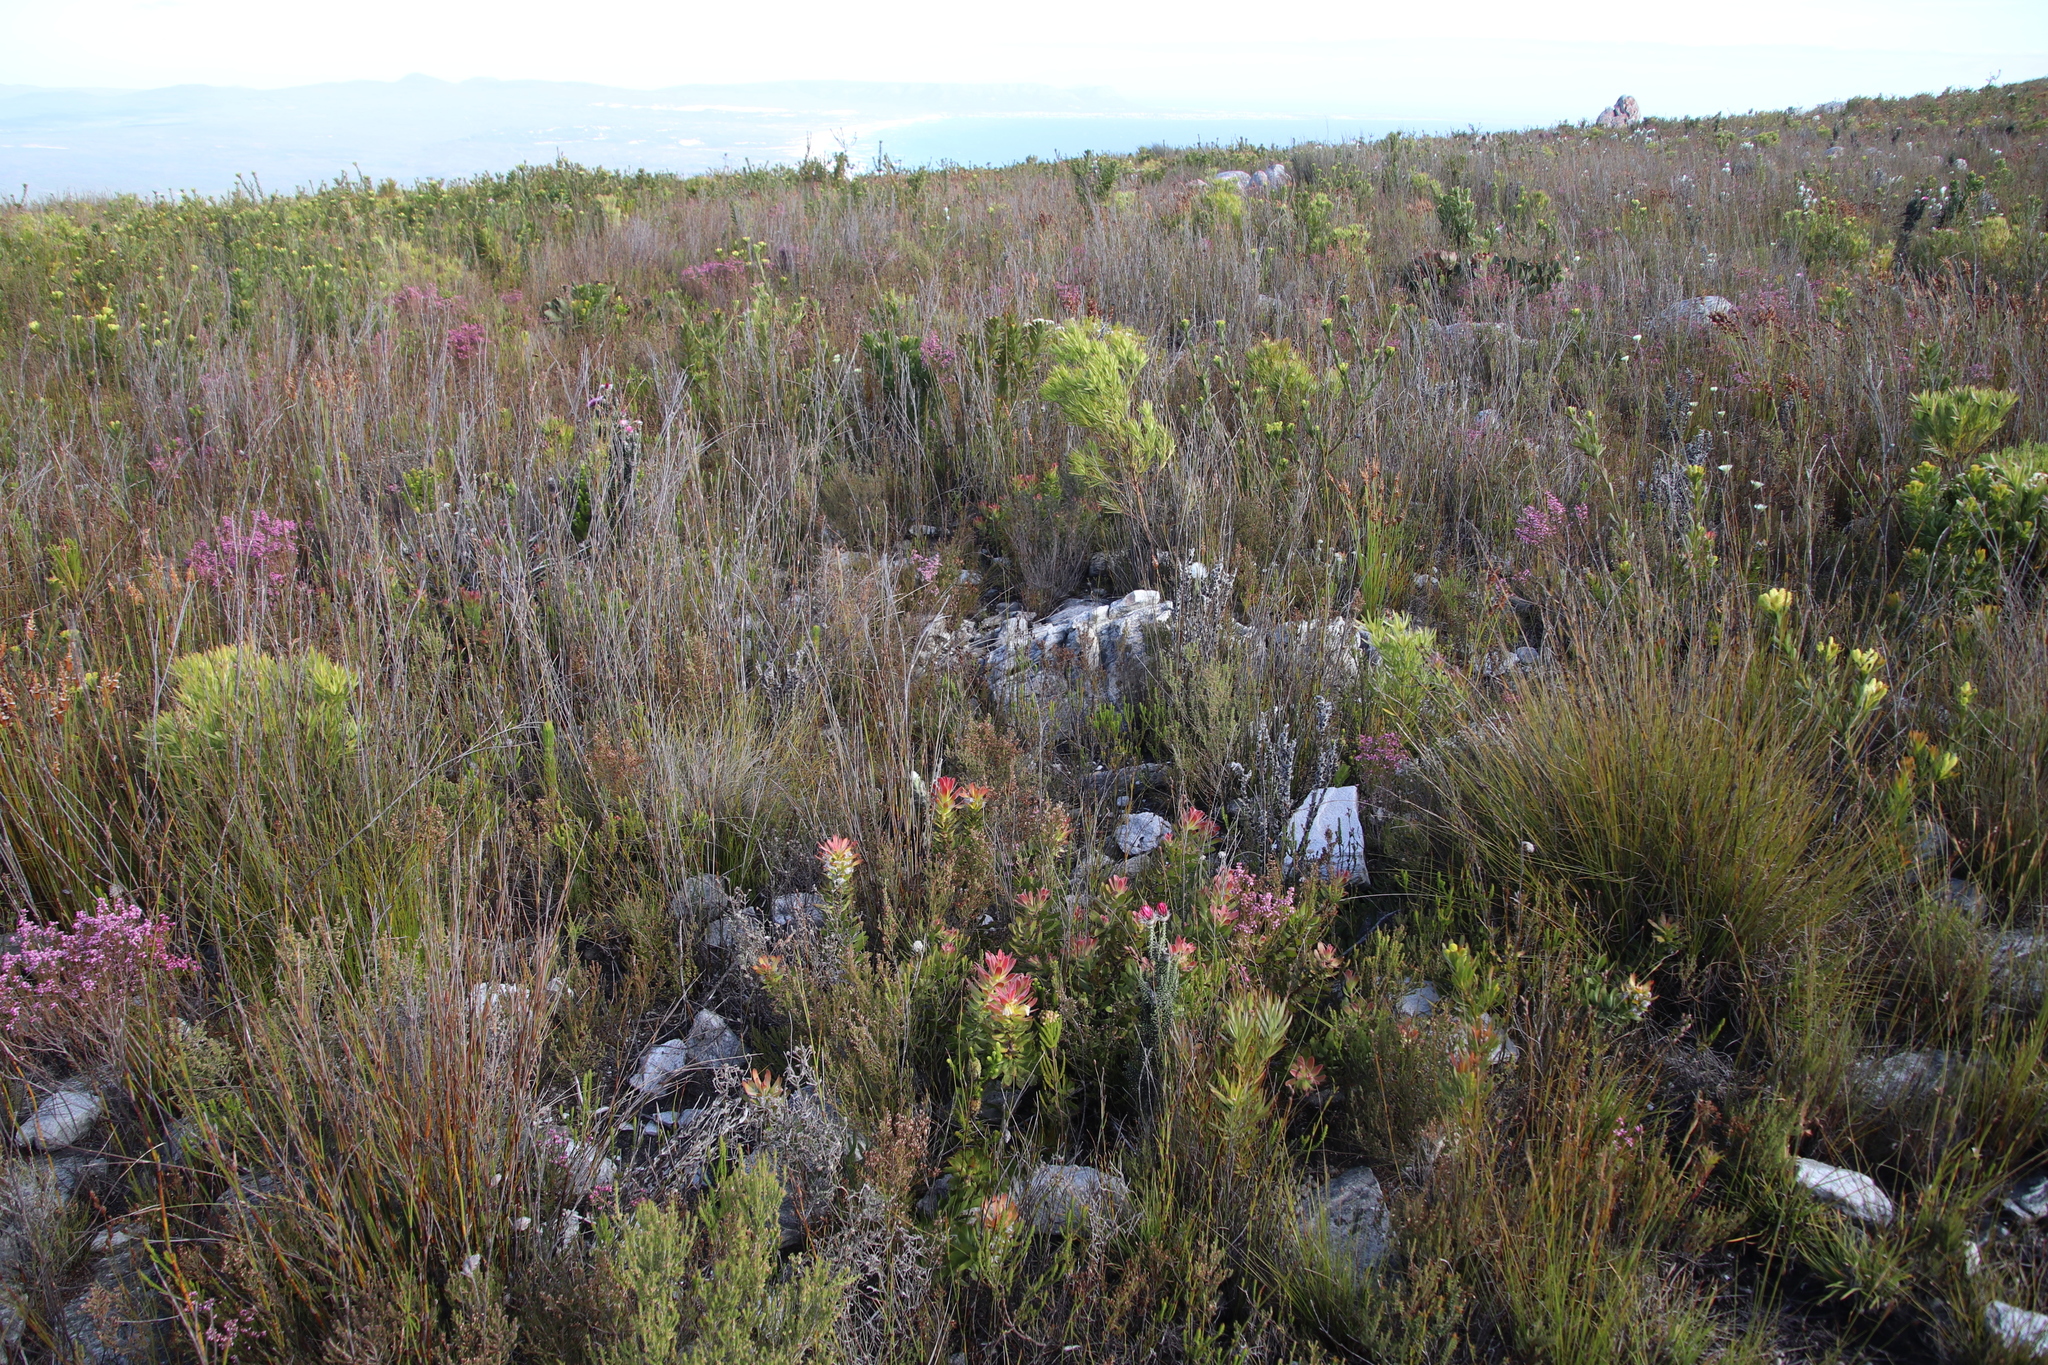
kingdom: Plantae
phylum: Tracheophyta
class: Magnoliopsida
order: Proteales
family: Proteaceae
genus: Mimetes
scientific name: Mimetes cucullatus
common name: Common pagoda
